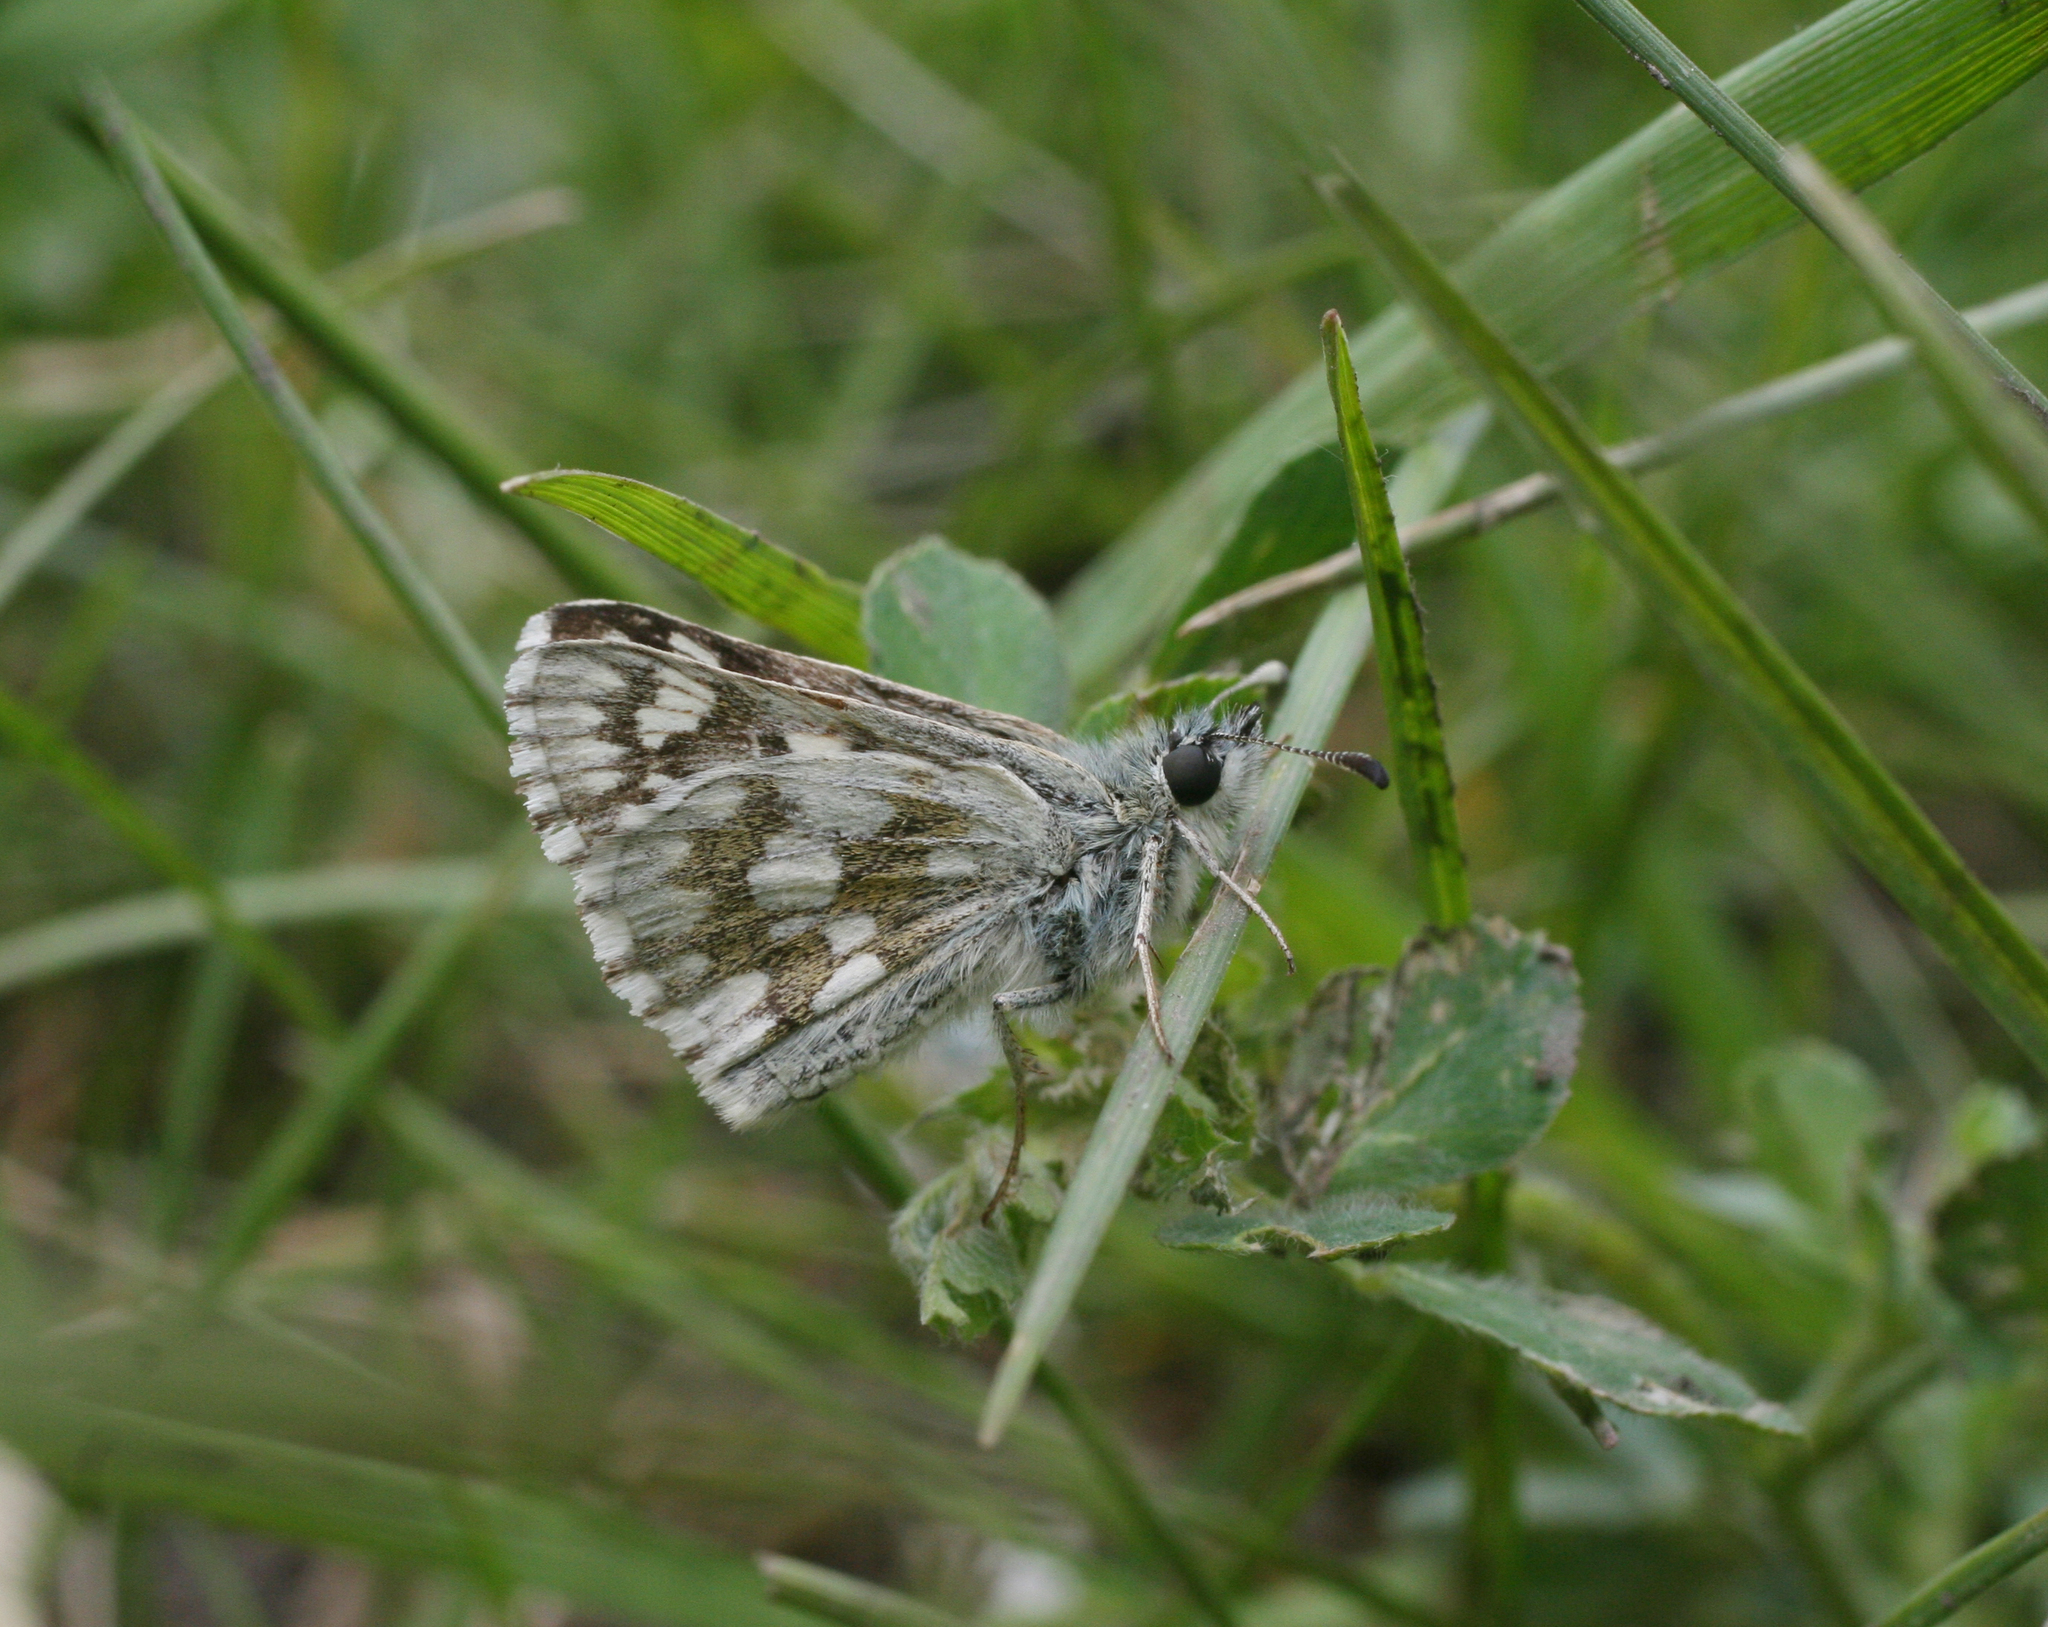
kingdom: Animalia
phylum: Arthropoda
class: Insecta
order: Lepidoptera
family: Hesperiidae
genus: Syrichtus
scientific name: Syrichtus cribrellum
